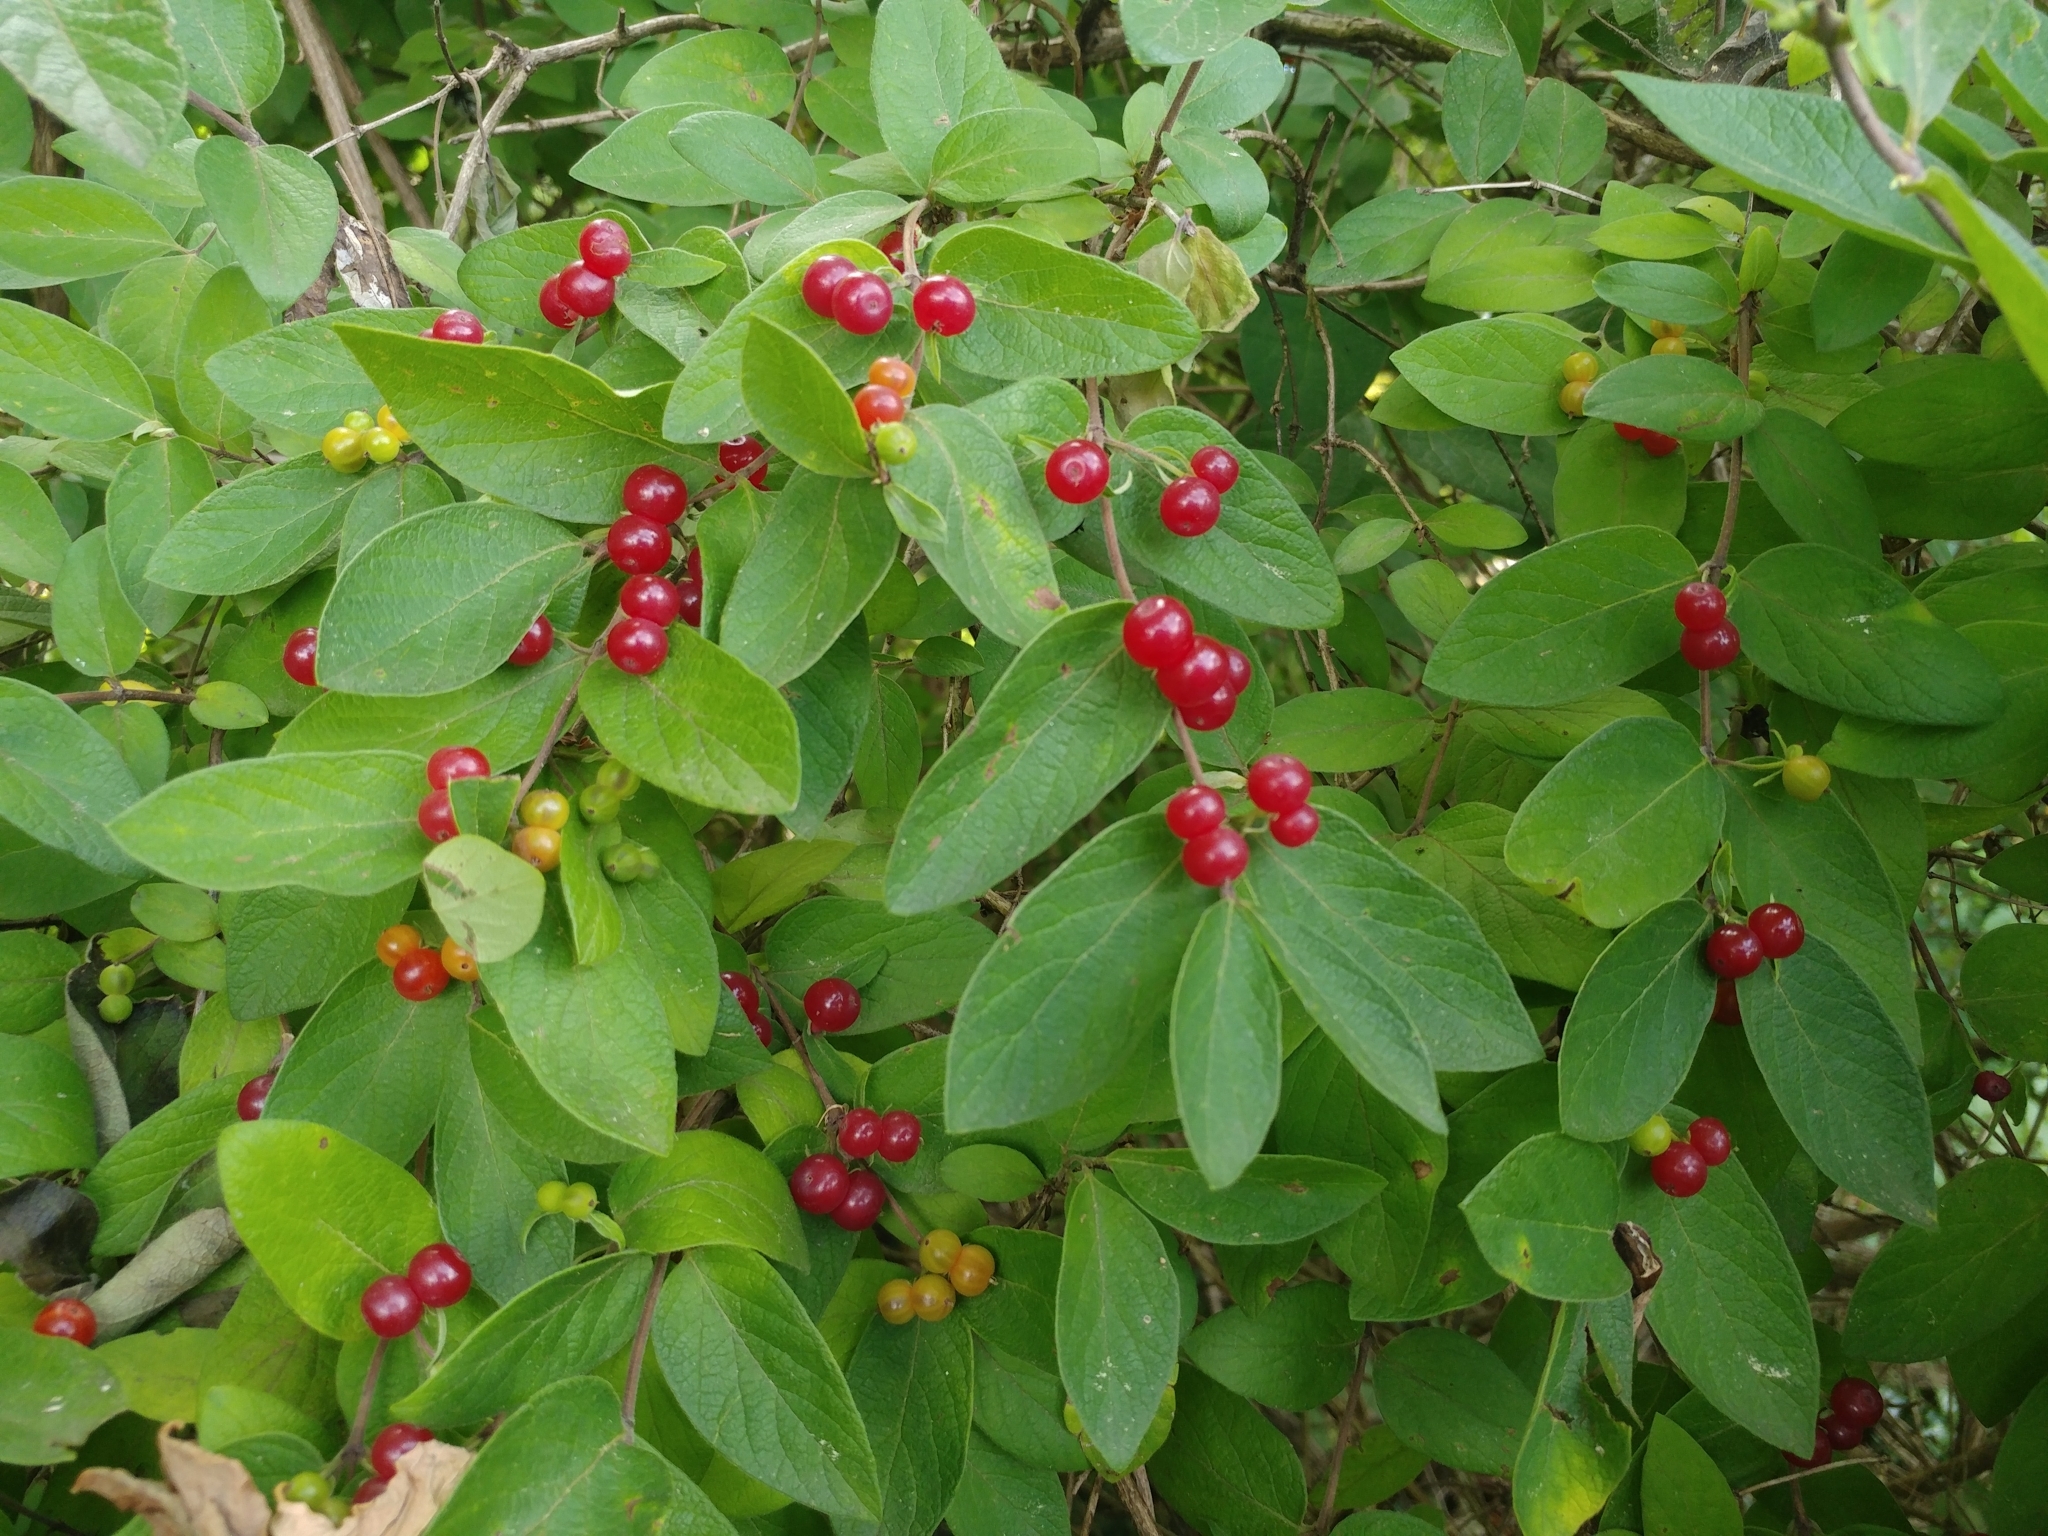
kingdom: Plantae
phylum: Tracheophyta
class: Magnoliopsida
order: Dipsacales
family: Caprifoliaceae
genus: Lonicera
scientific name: Lonicera morrowii
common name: Morrow's honeysuckle
